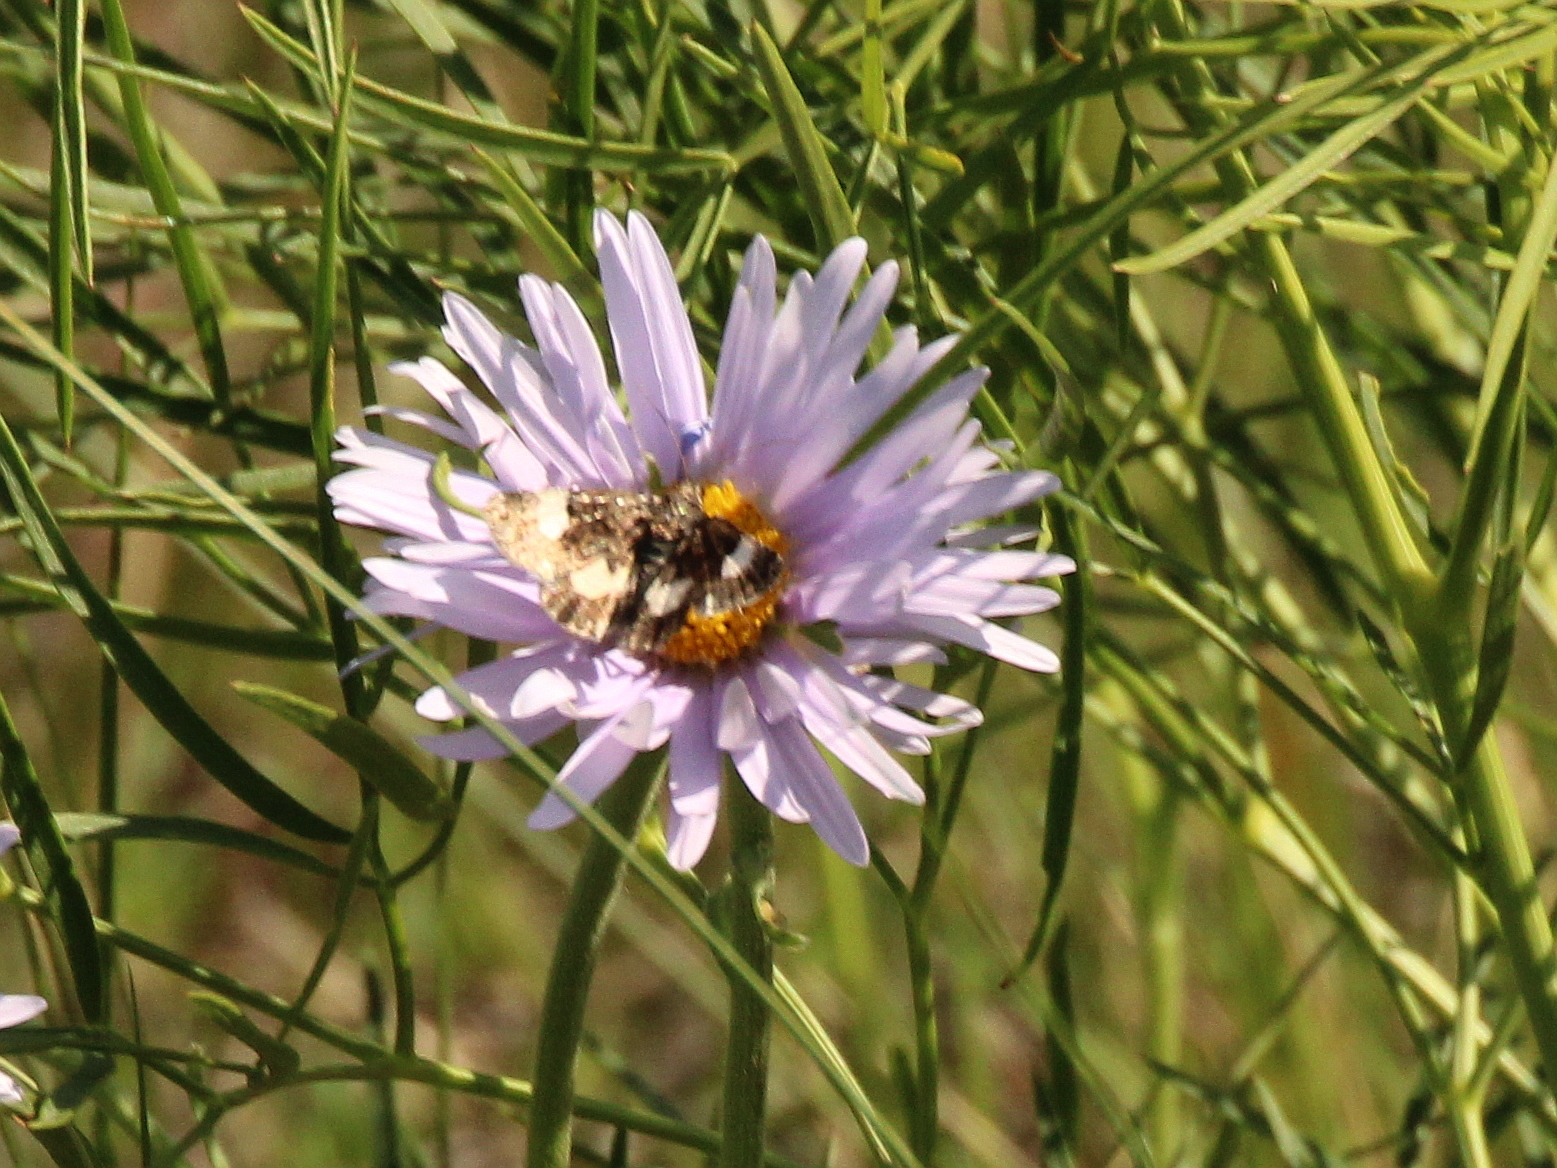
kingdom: Animalia
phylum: Arthropoda
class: Insecta
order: Lepidoptera
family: Erebidae
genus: Tyta
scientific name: Tyta luctuosa
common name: Four-spotted
